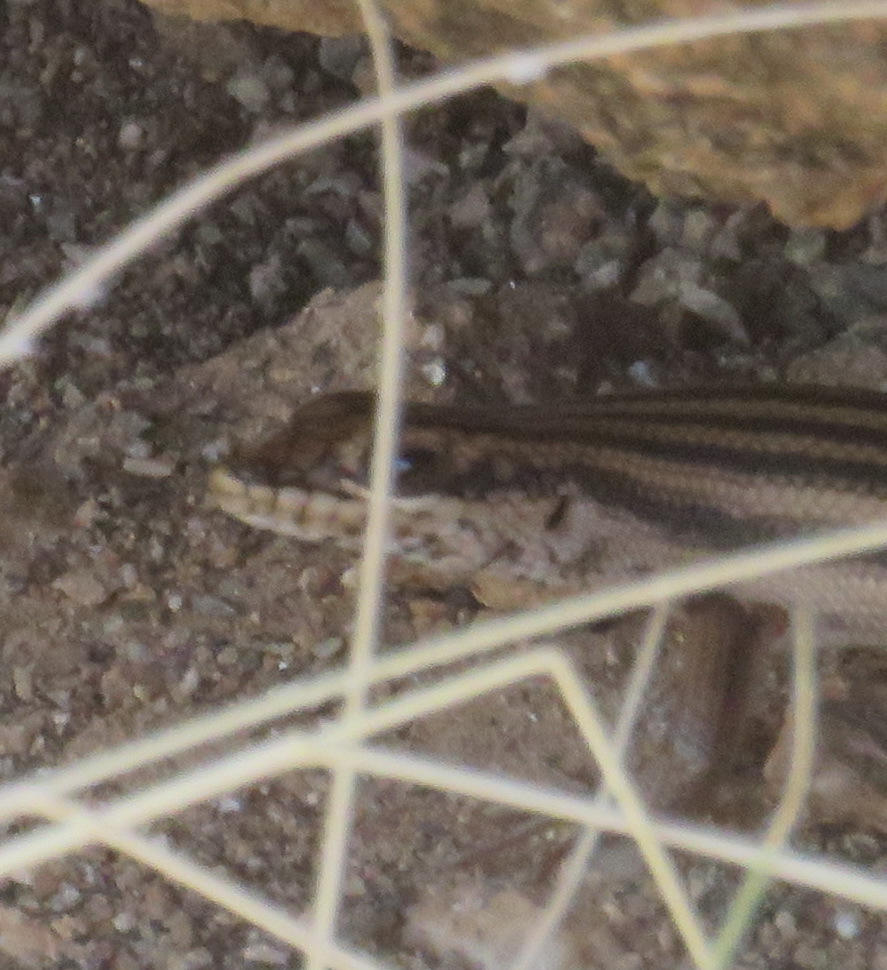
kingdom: Animalia
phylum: Chordata
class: Squamata
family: Scincidae
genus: Trachylepis
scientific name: Trachylepis sulcata
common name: Western rock skink
